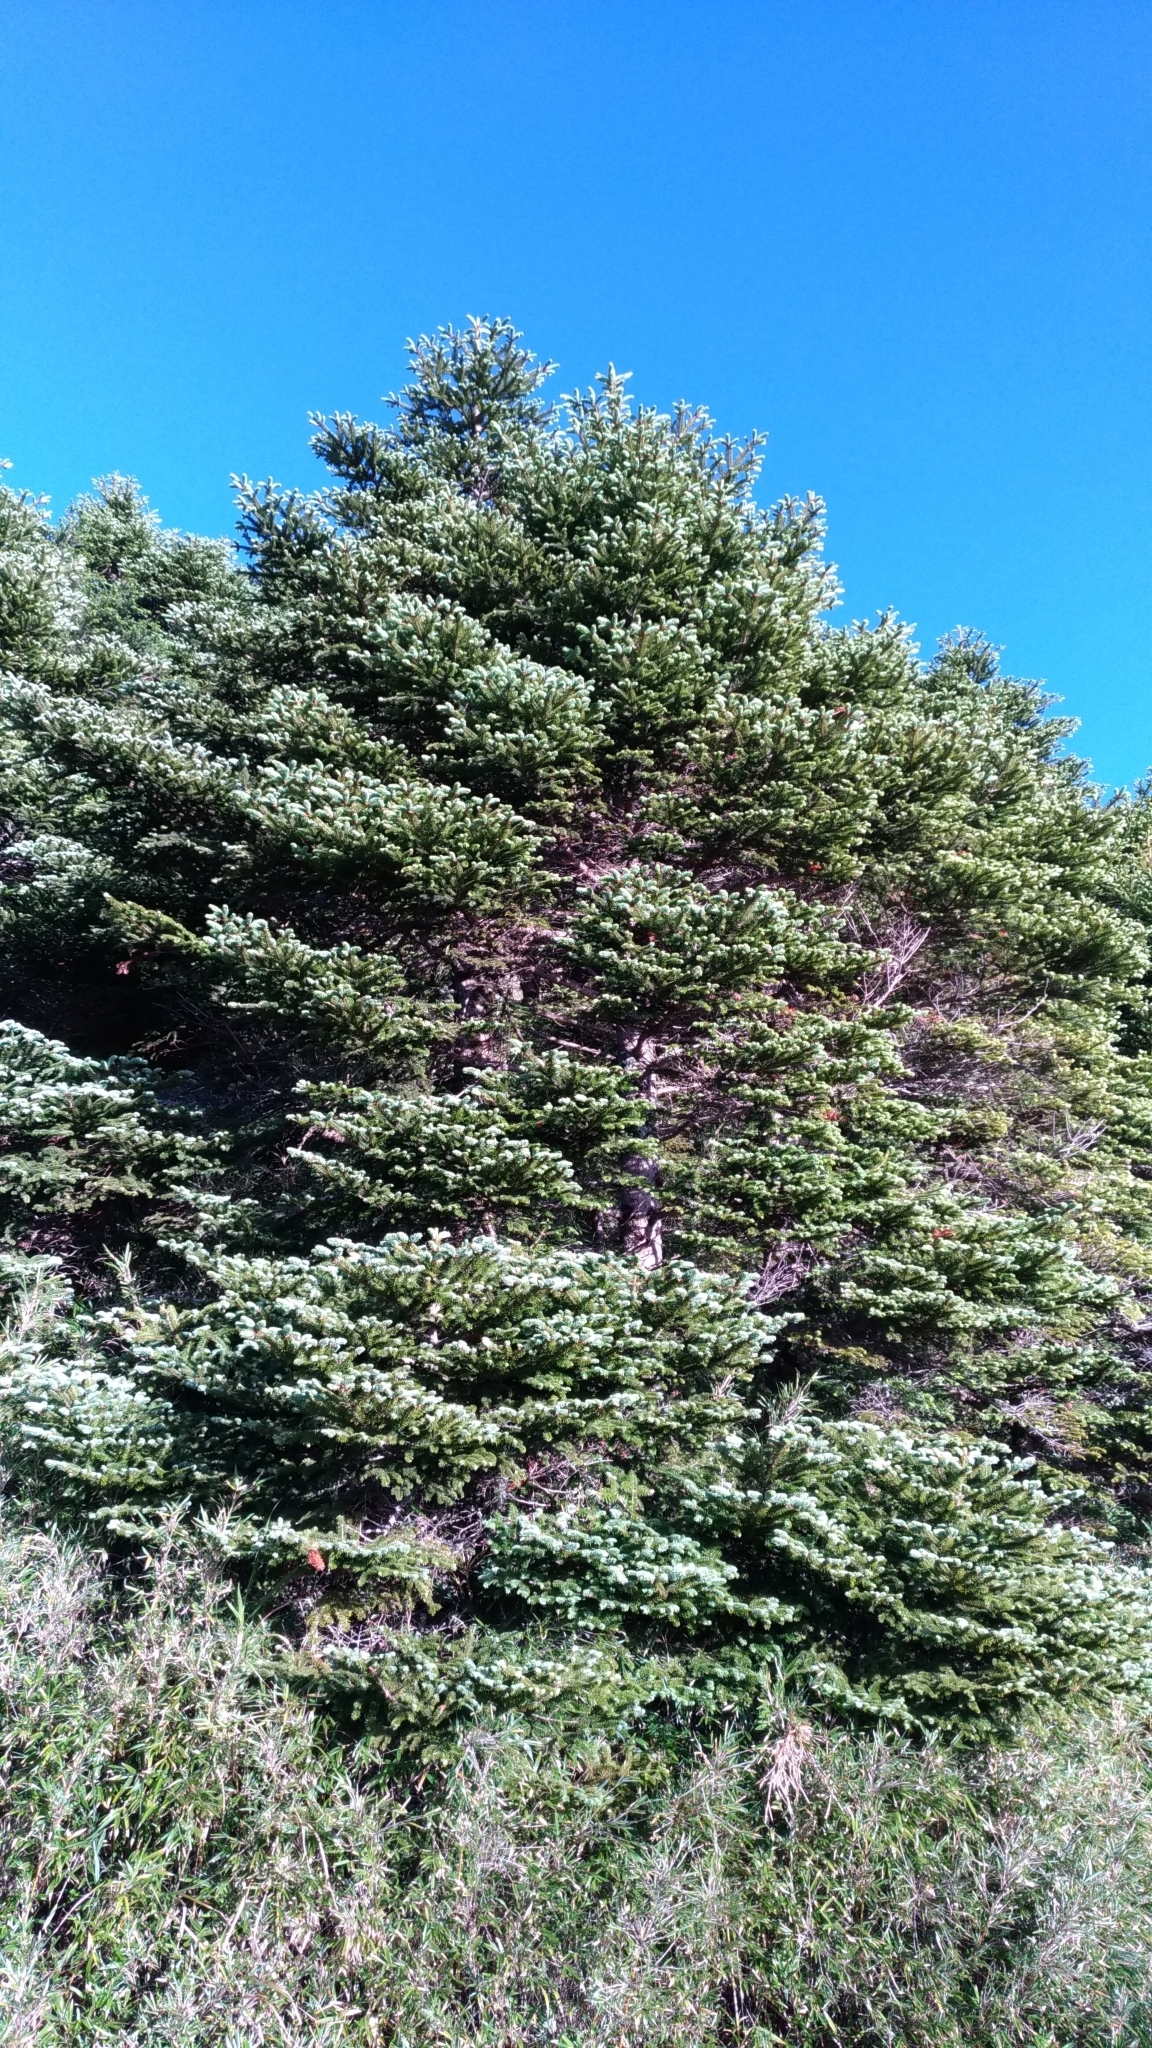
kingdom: Plantae
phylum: Tracheophyta
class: Pinopsida
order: Pinales
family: Pinaceae
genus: Abies
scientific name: Abies kawakamii
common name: Taiwan fir
